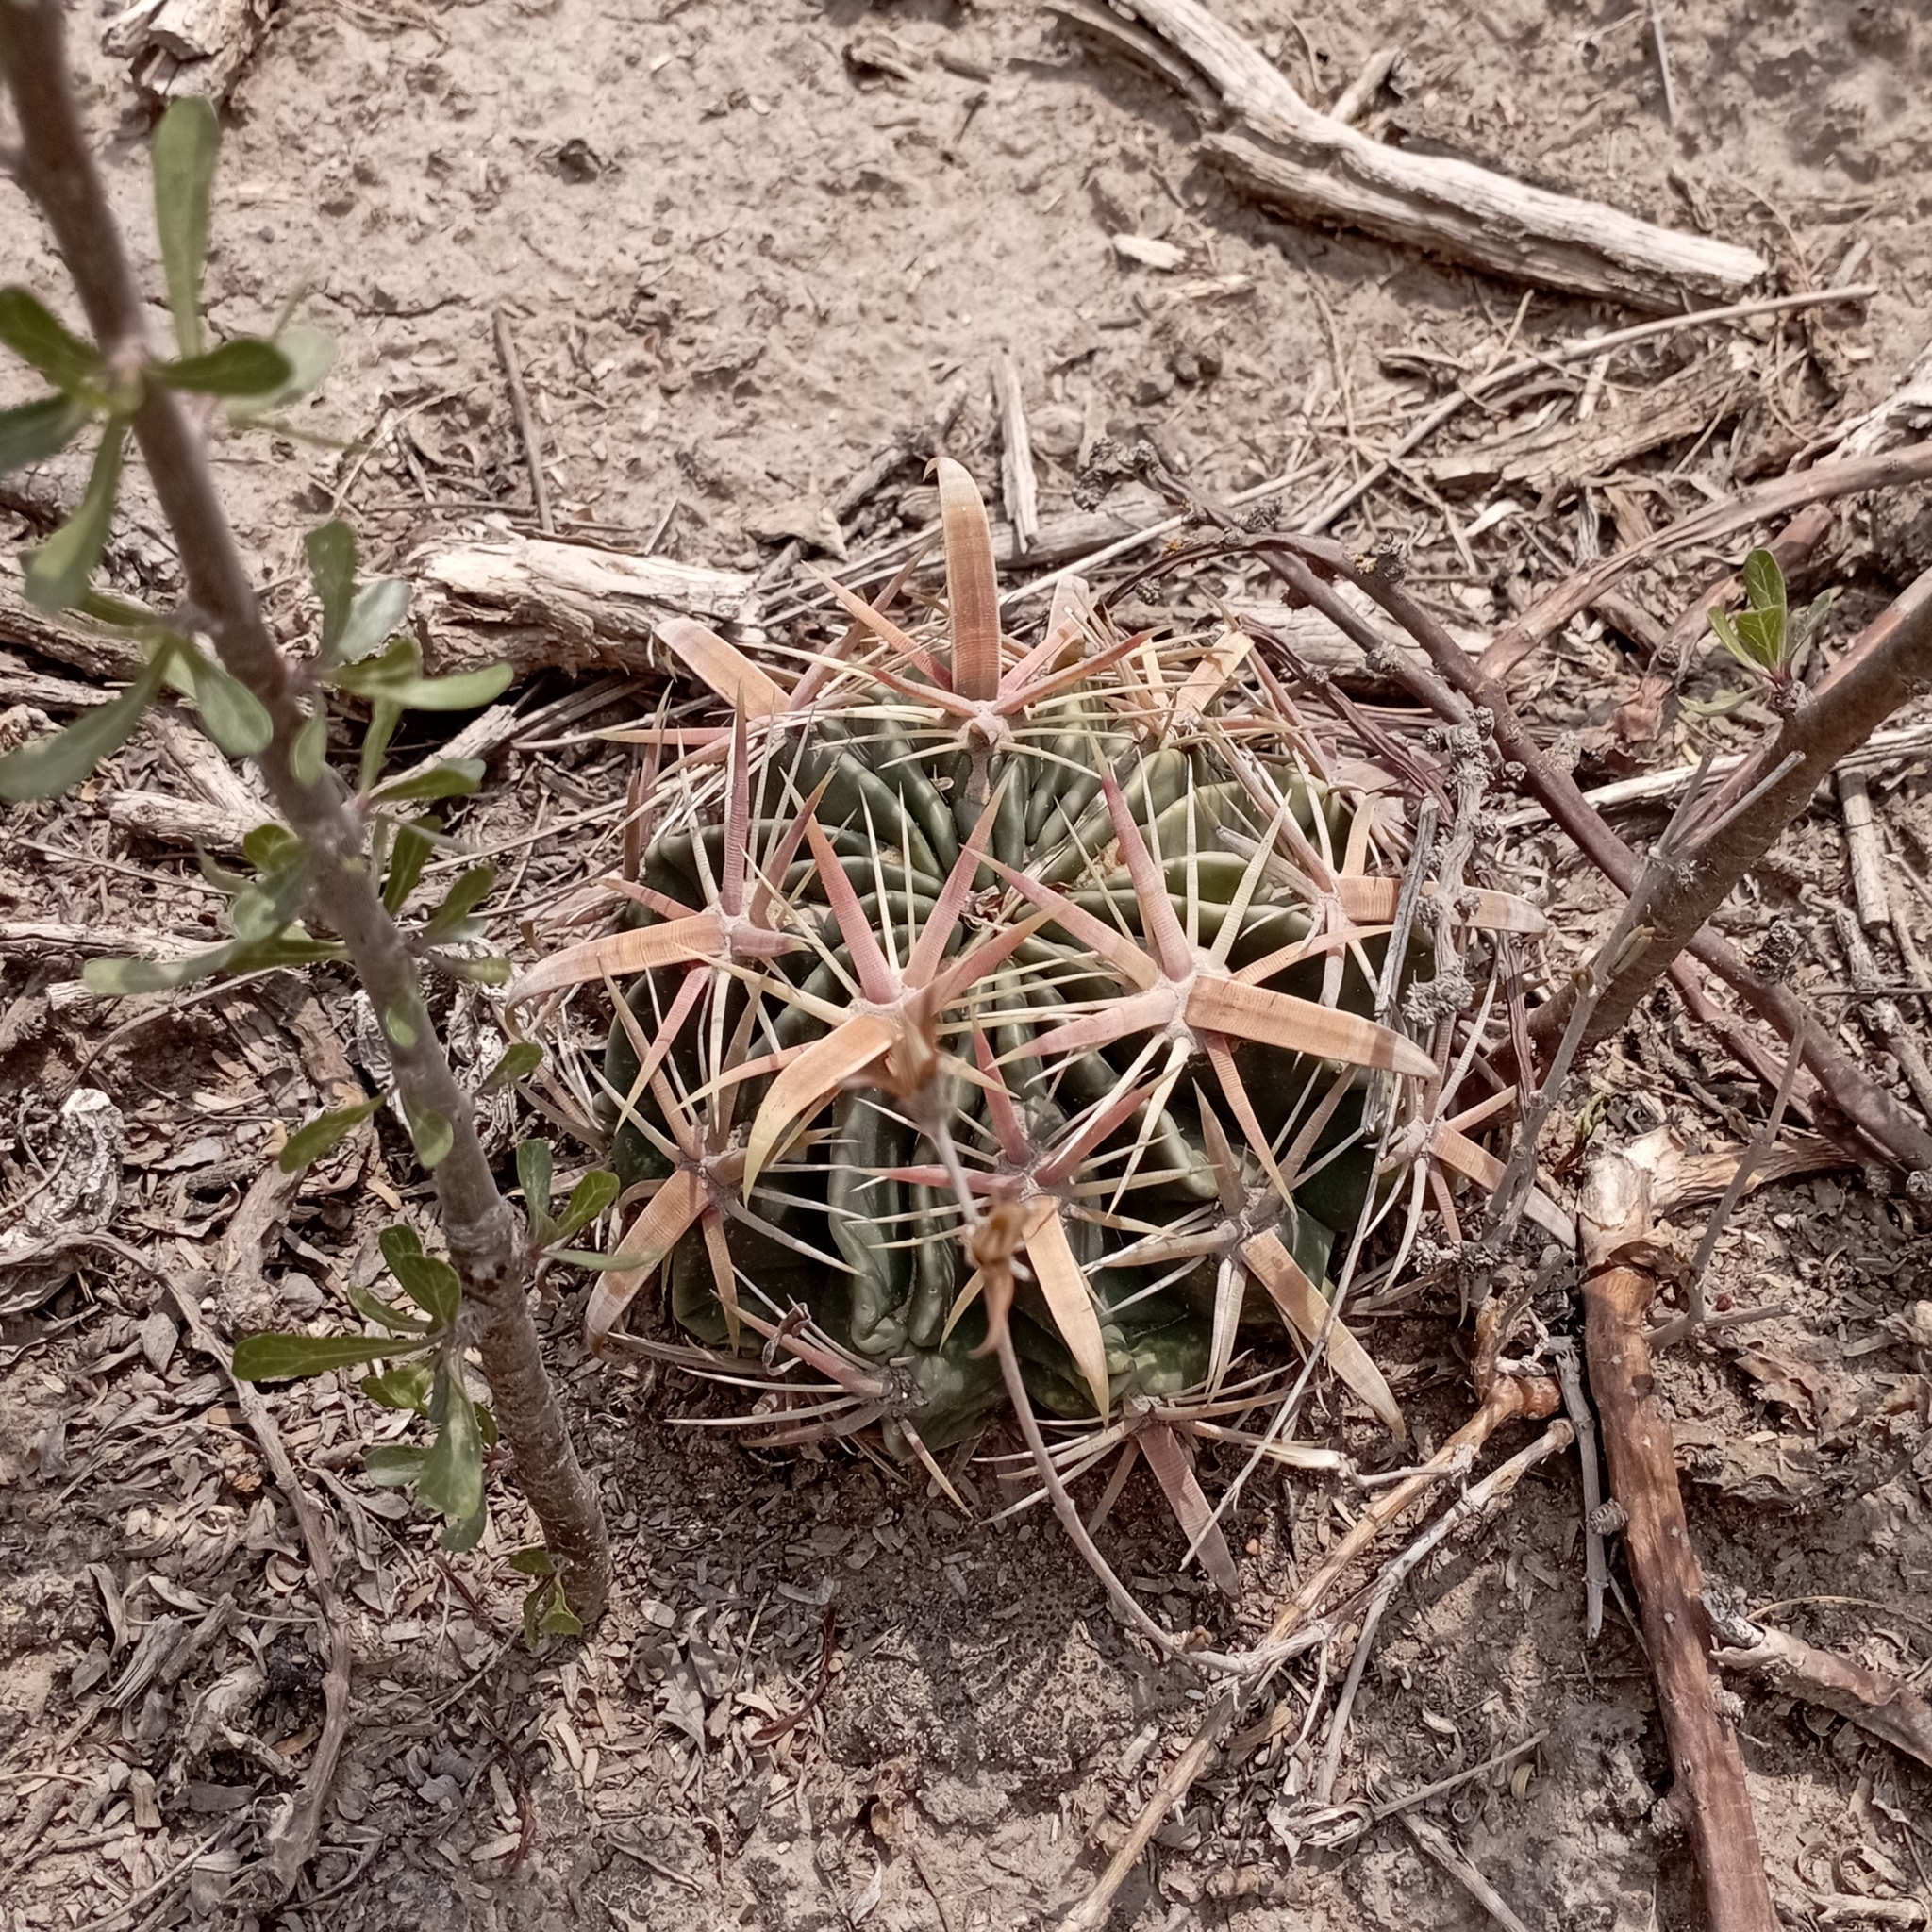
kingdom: Plantae
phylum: Tracheophyta
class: Magnoliopsida
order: Caryophyllales
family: Cactaceae
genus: Ferocactus
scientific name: Ferocactus latispinus
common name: Devil's-tongue cactus
